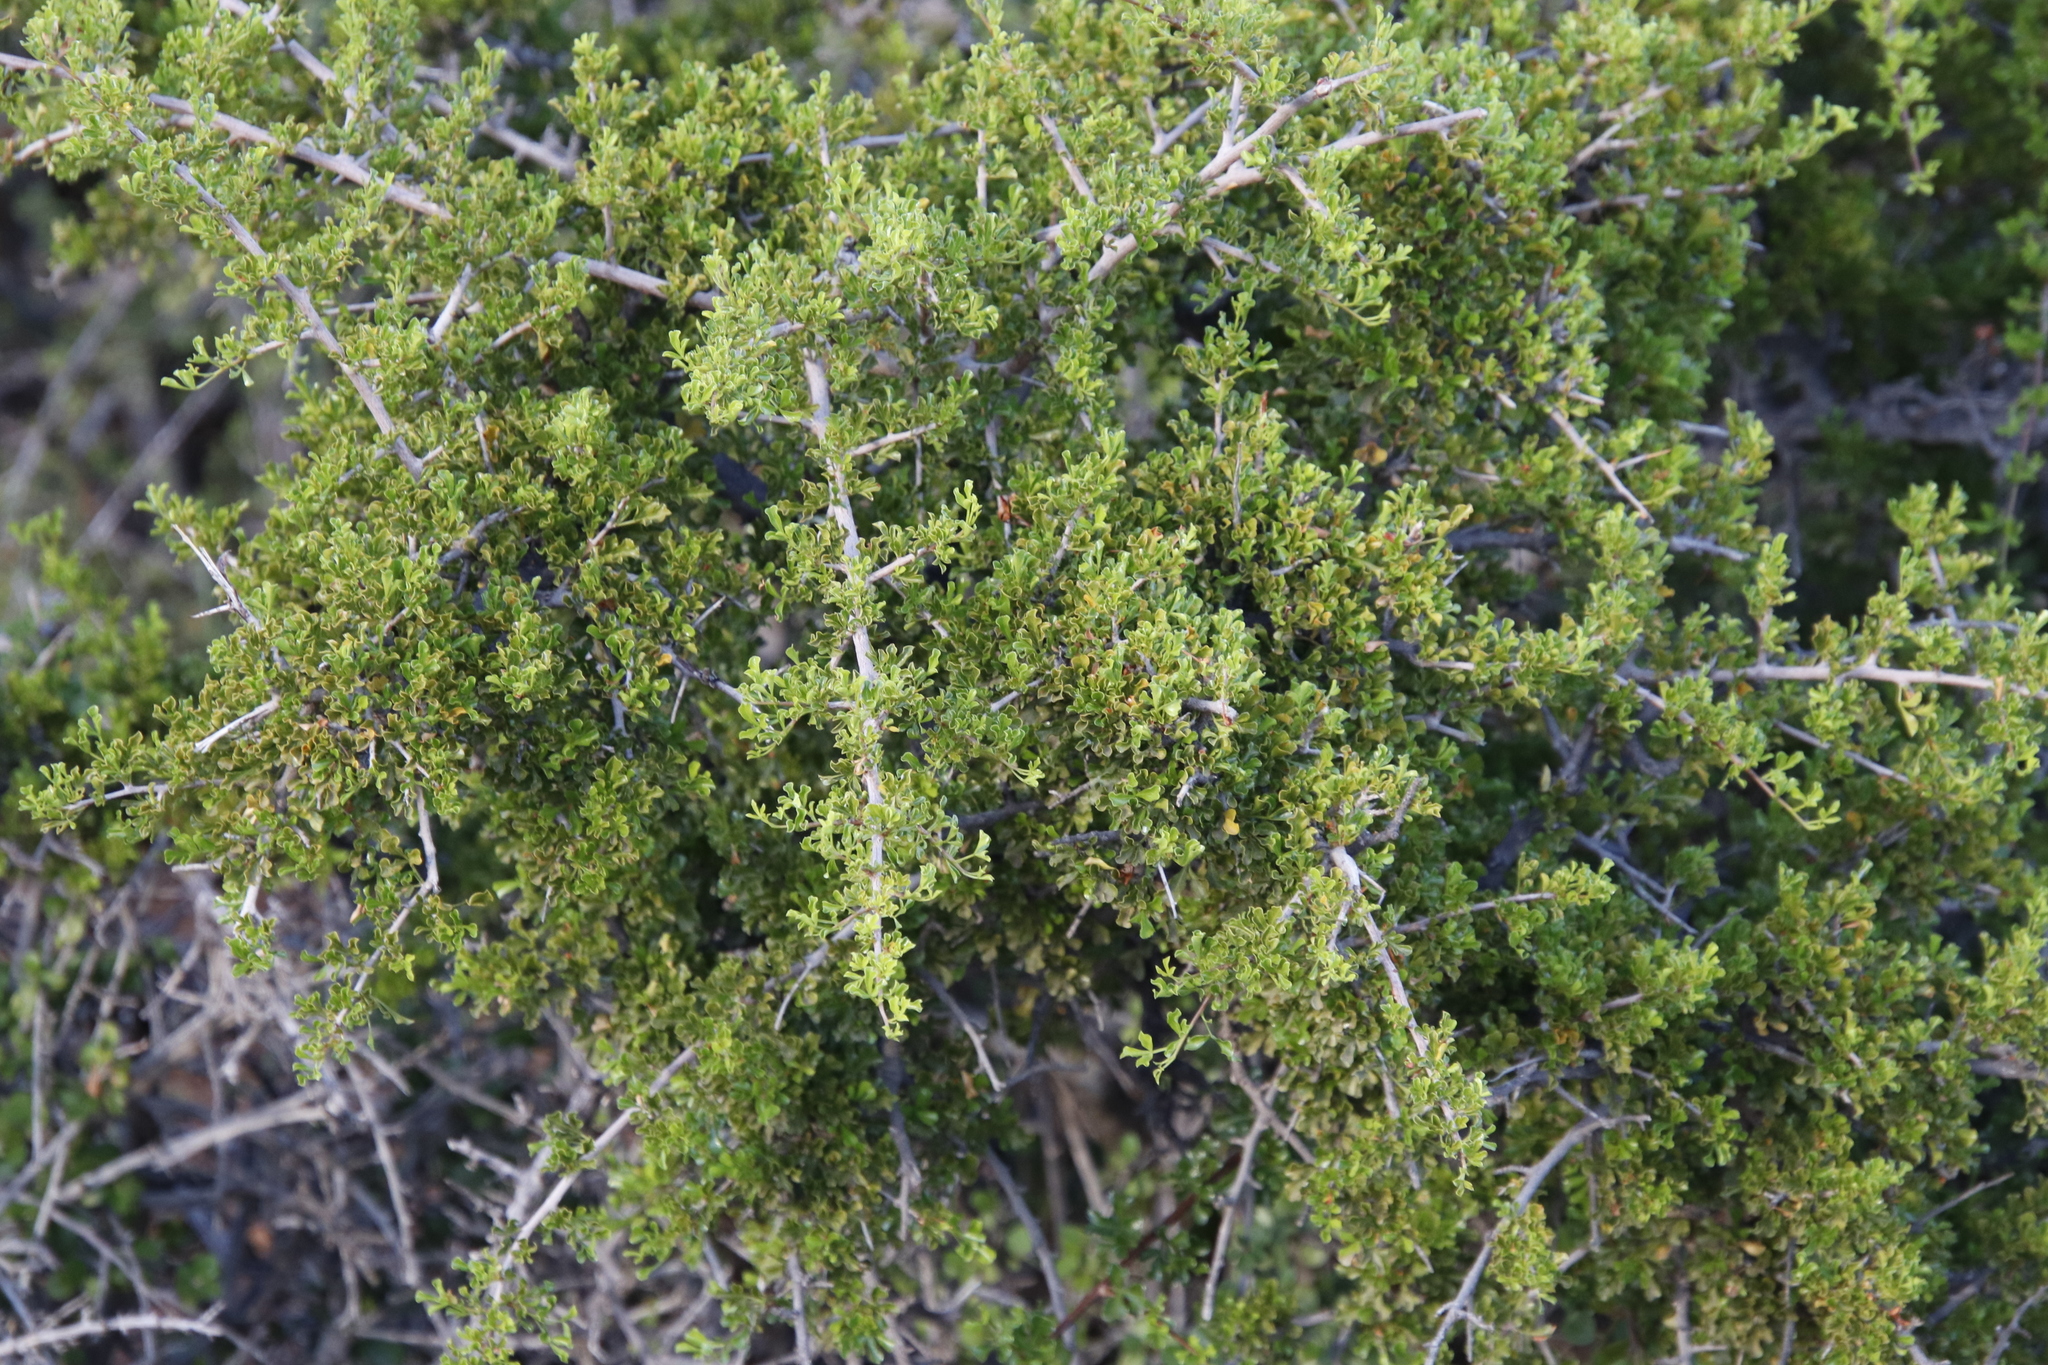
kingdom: Plantae
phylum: Tracheophyta
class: Magnoliopsida
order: Sapindales
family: Anacardiaceae
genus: Searsia
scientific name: Searsia burchellii
